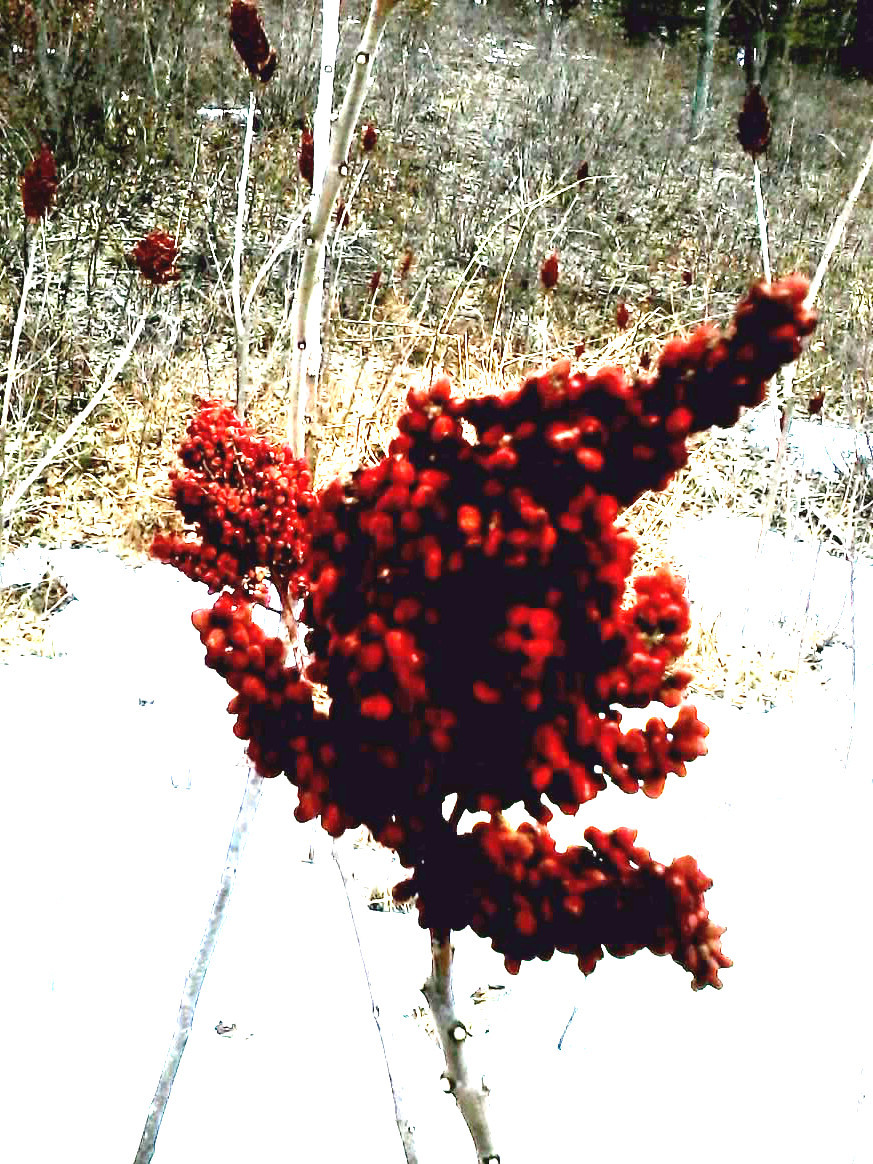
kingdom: Plantae
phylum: Tracheophyta
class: Magnoliopsida
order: Sapindales
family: Anacardiaceae
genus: Rhus
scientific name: Rhus glabra
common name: Scarlet sumac
